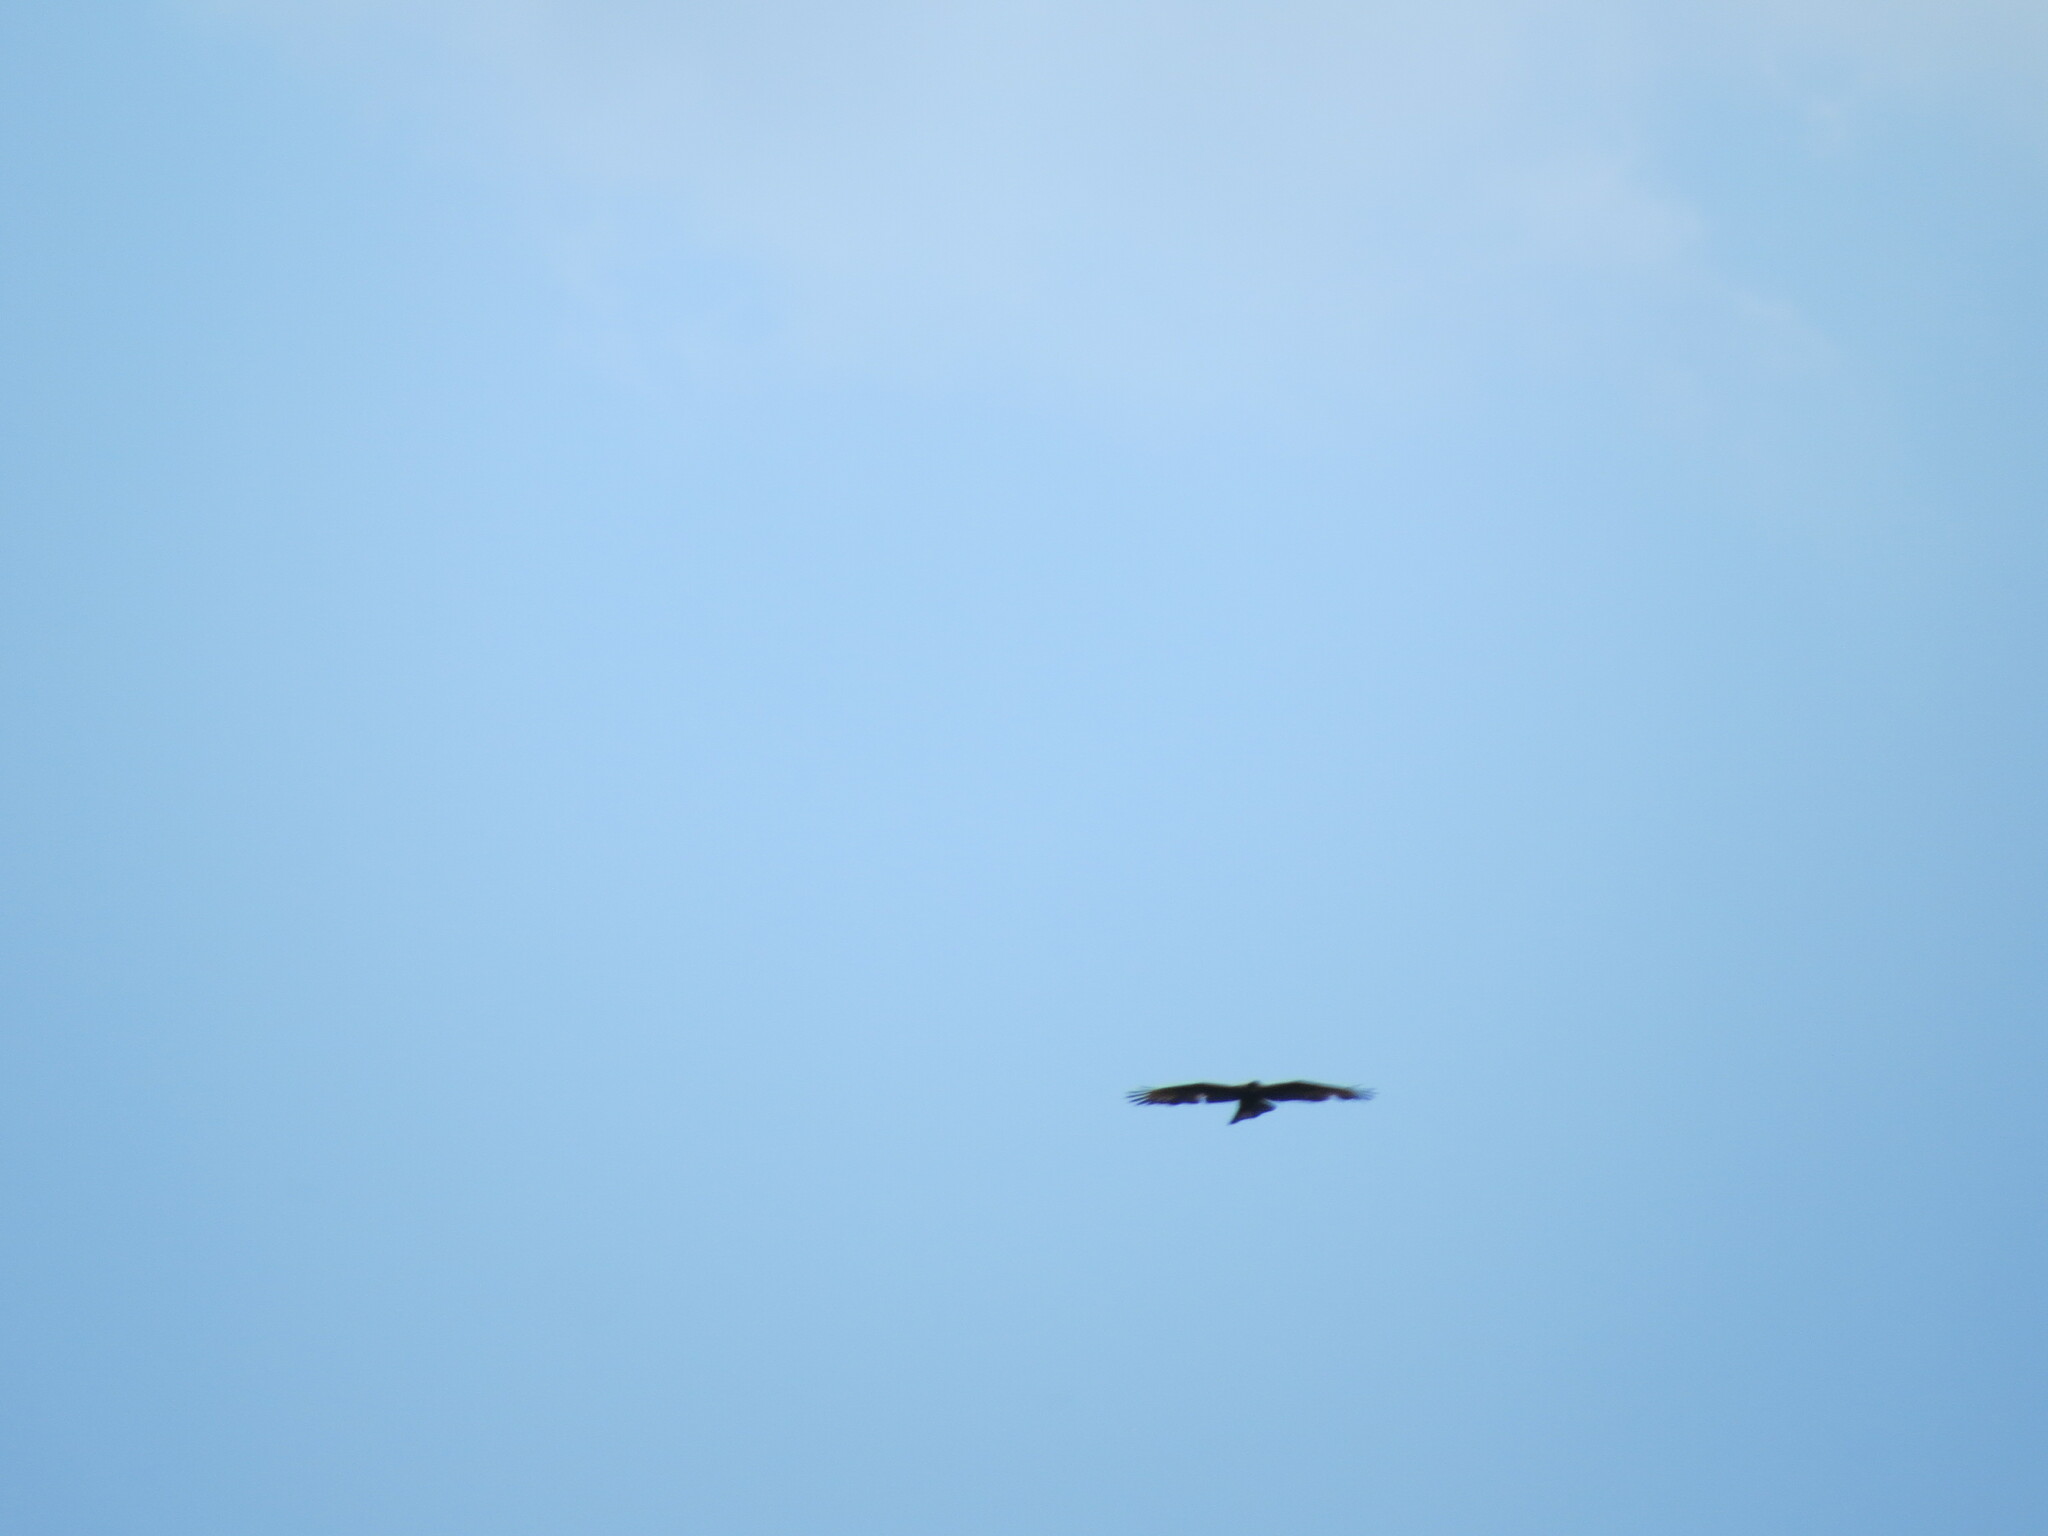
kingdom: Animalia
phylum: Chordata
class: Aves
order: Accipitriformes
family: Accipitridae
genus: Pernis
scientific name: Pernis apivorus
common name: European honey buzzard
